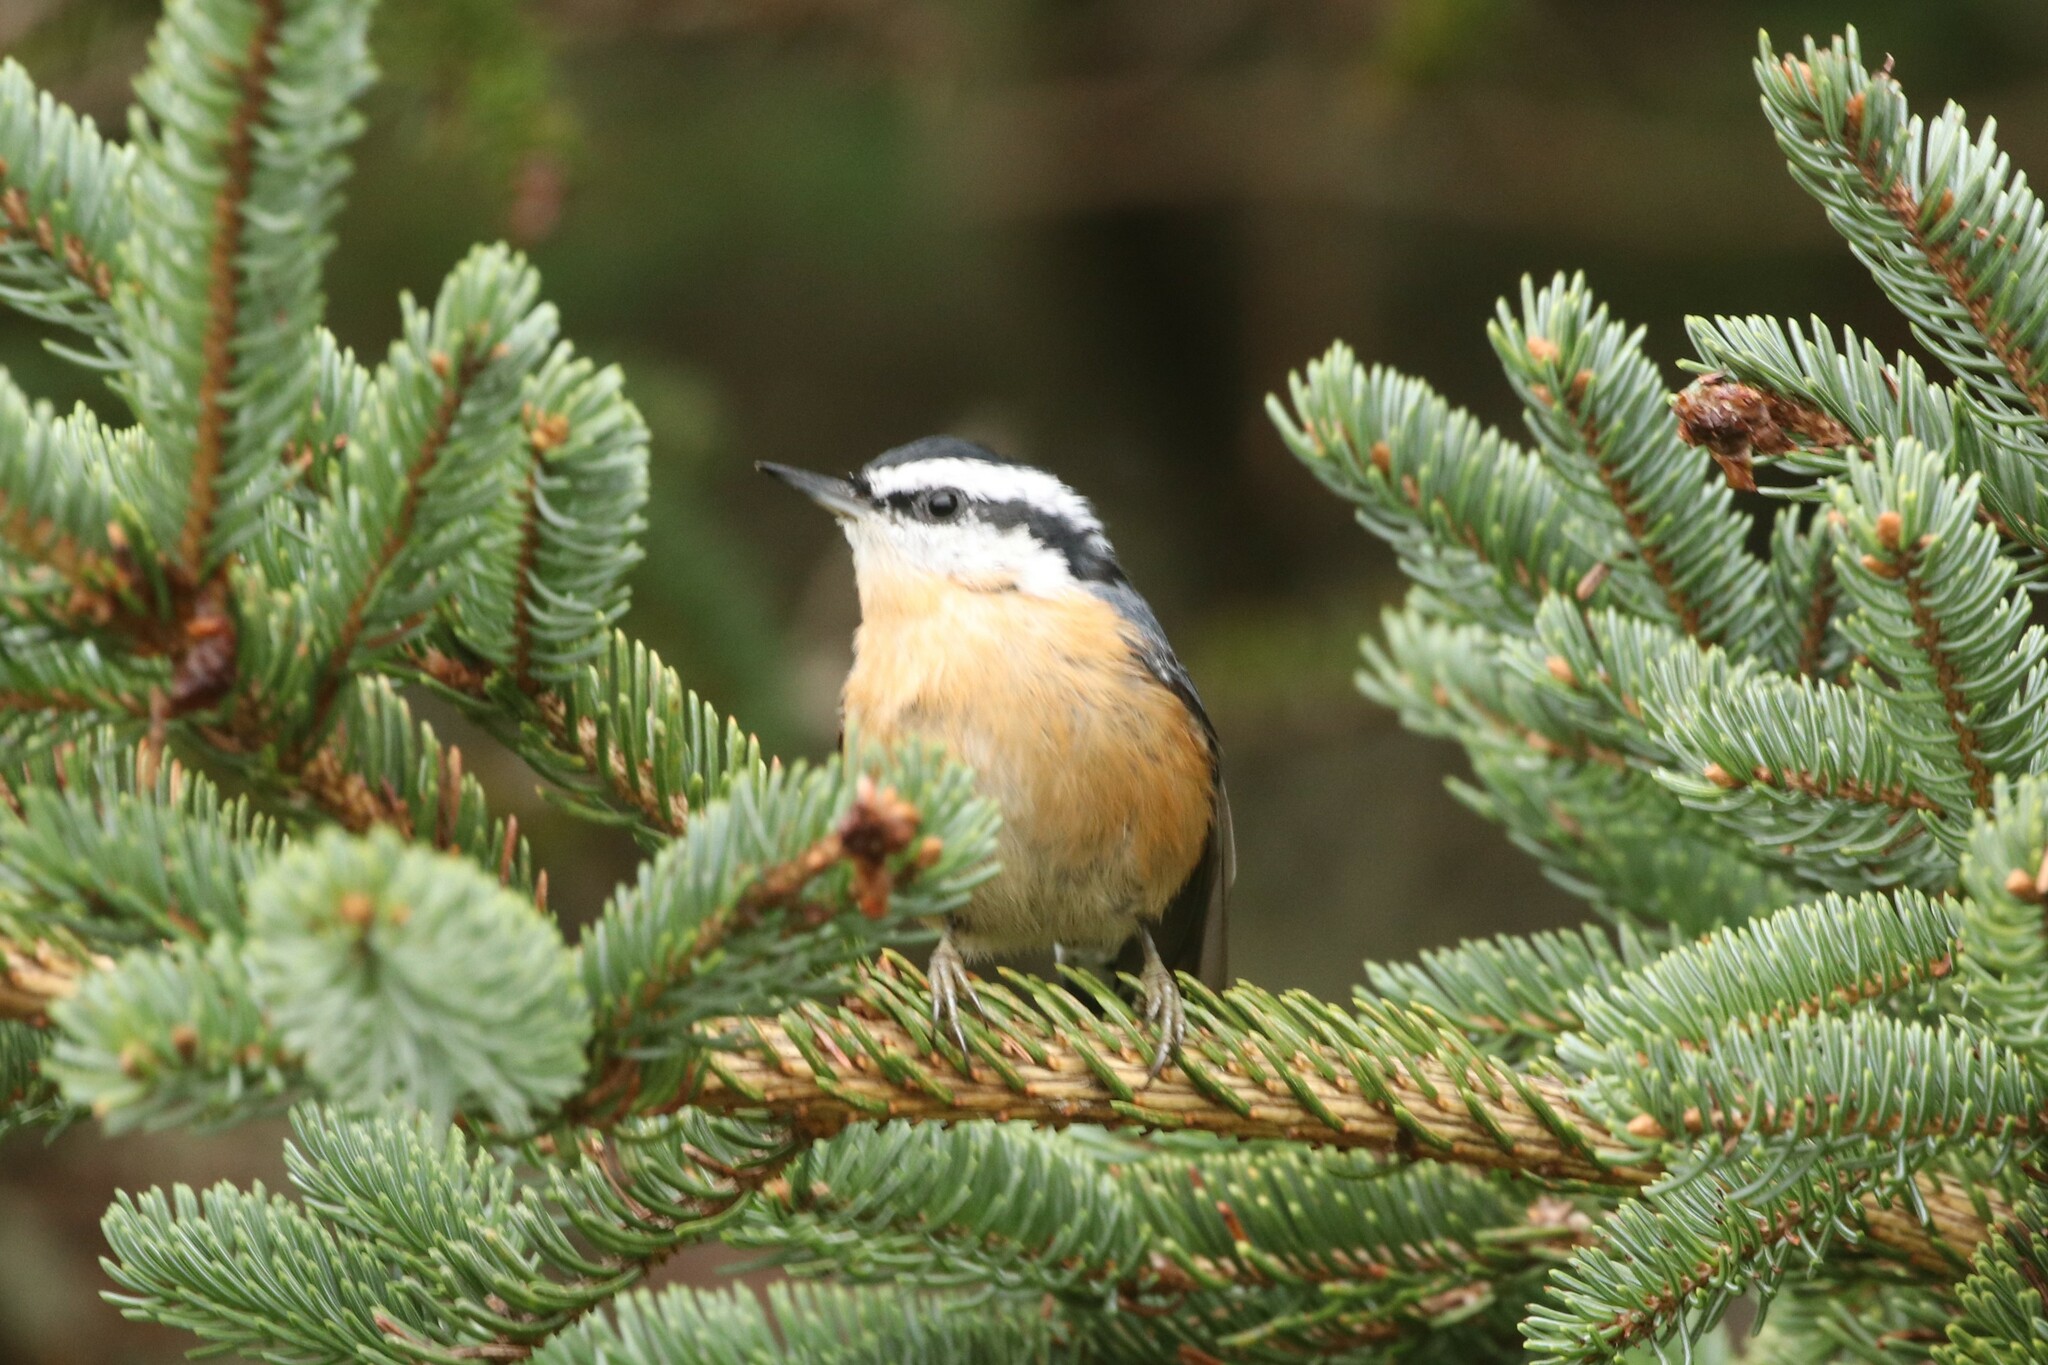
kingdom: Animalia
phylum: Chordata
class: Aves
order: Passeriformes
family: Sittidae
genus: Sitta
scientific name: Sitta canadensis
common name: Red-breasted nuthatch
